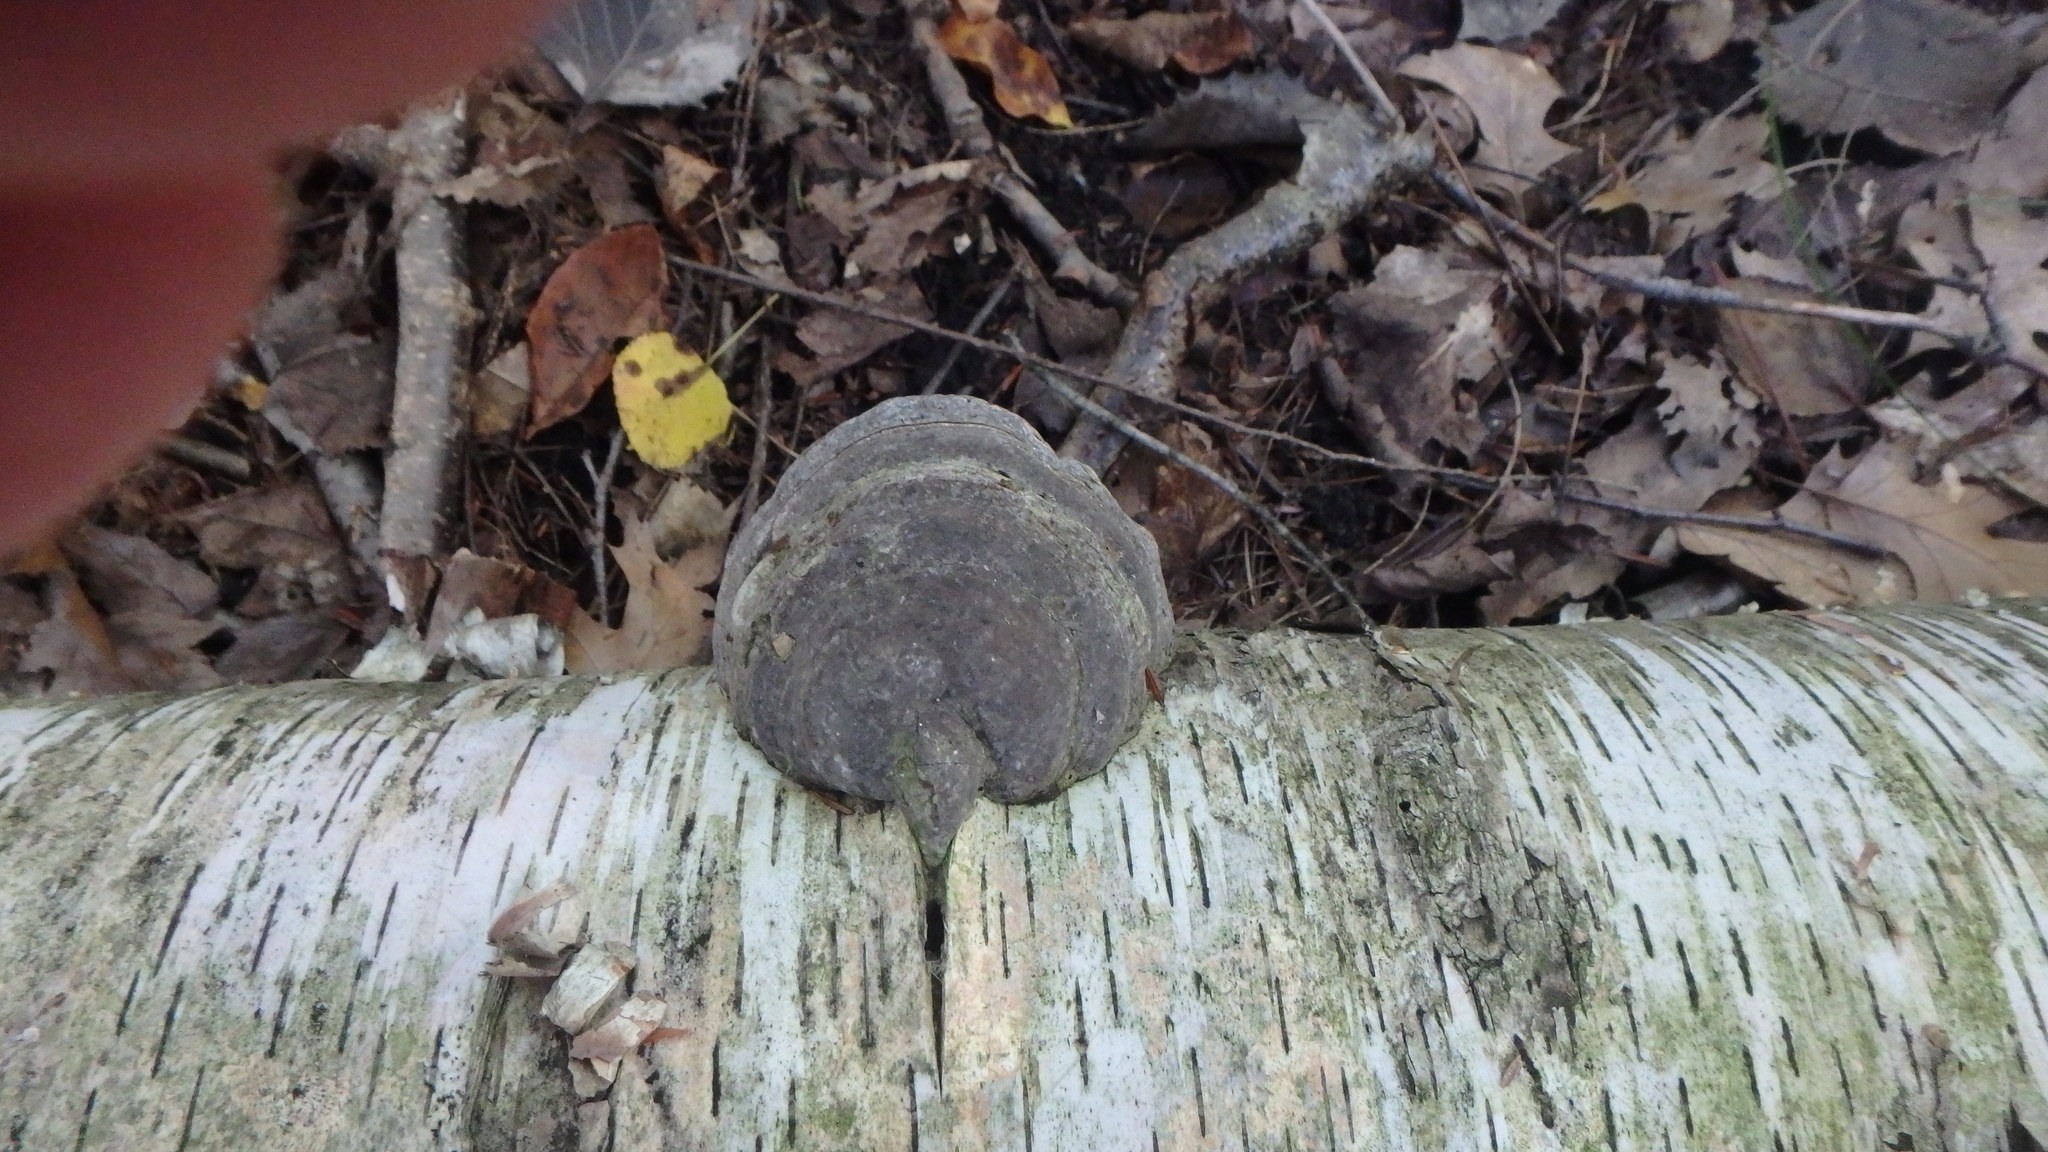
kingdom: Fungi
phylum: Basidiomycota
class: Agaricomycetes
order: Polyporales
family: Polyporaceae
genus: Fomes
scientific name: Fomes fomentarius
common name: Hoof fungus
